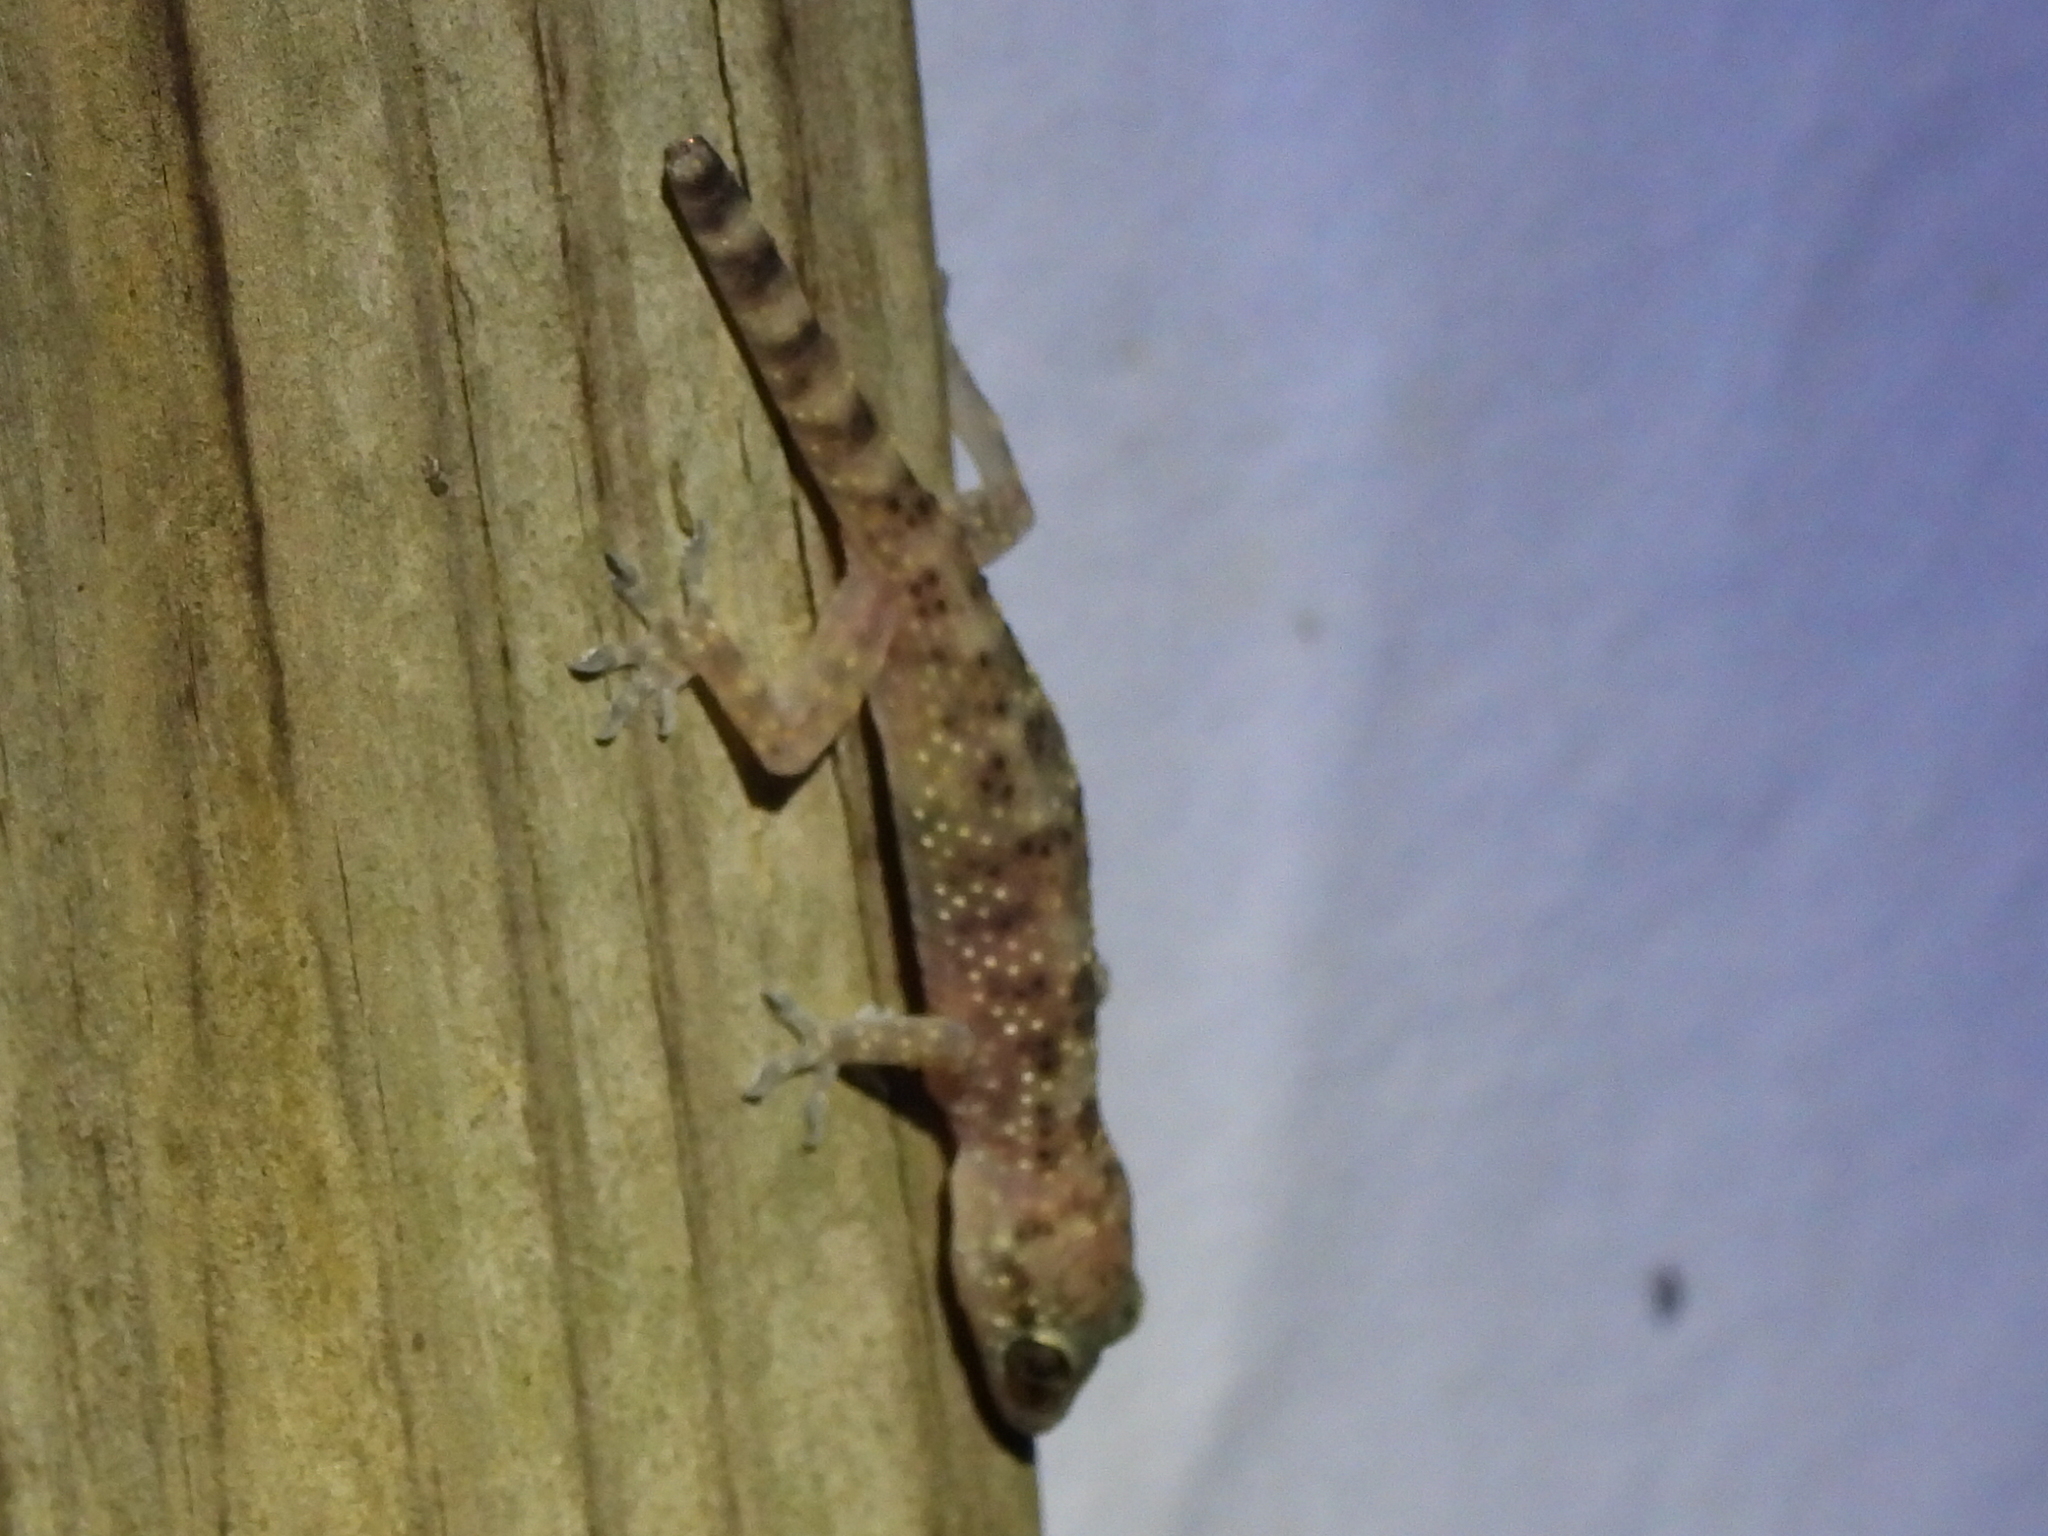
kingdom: Animalia
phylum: Chordata
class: Squamata
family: Gekkonidae
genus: Hemidactylus
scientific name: Hemidactylus turcicus
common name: Turkish gecko
